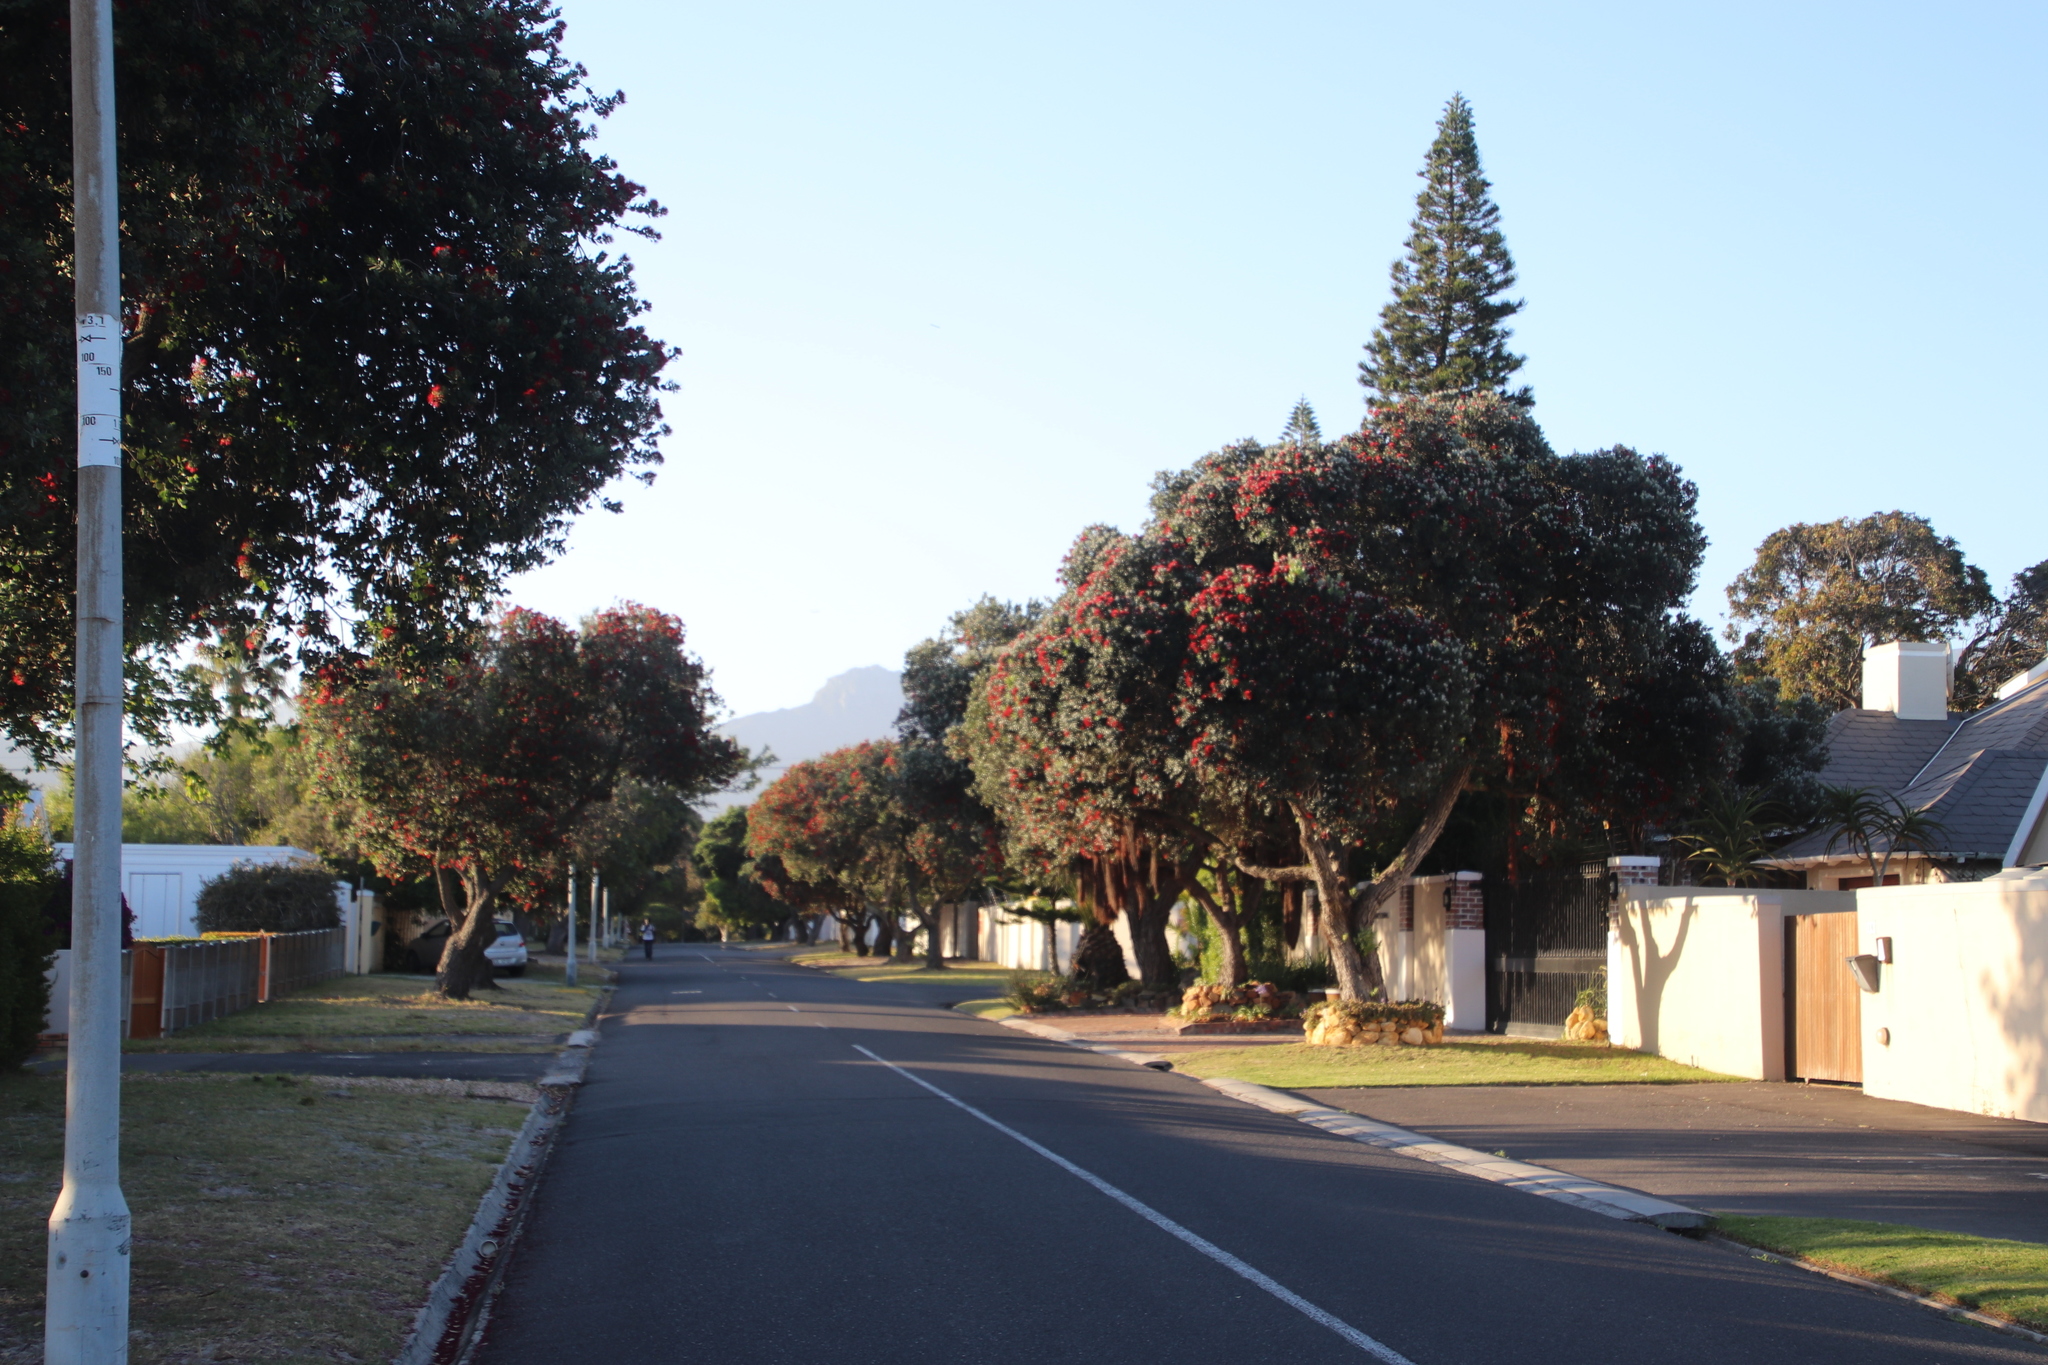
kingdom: Plantae
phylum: Tracheophyta
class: Magnoliopsida
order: Myrtales
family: Myrtaceae
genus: Corymbia
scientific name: Corymbia ficifolia
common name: Redflower gum
